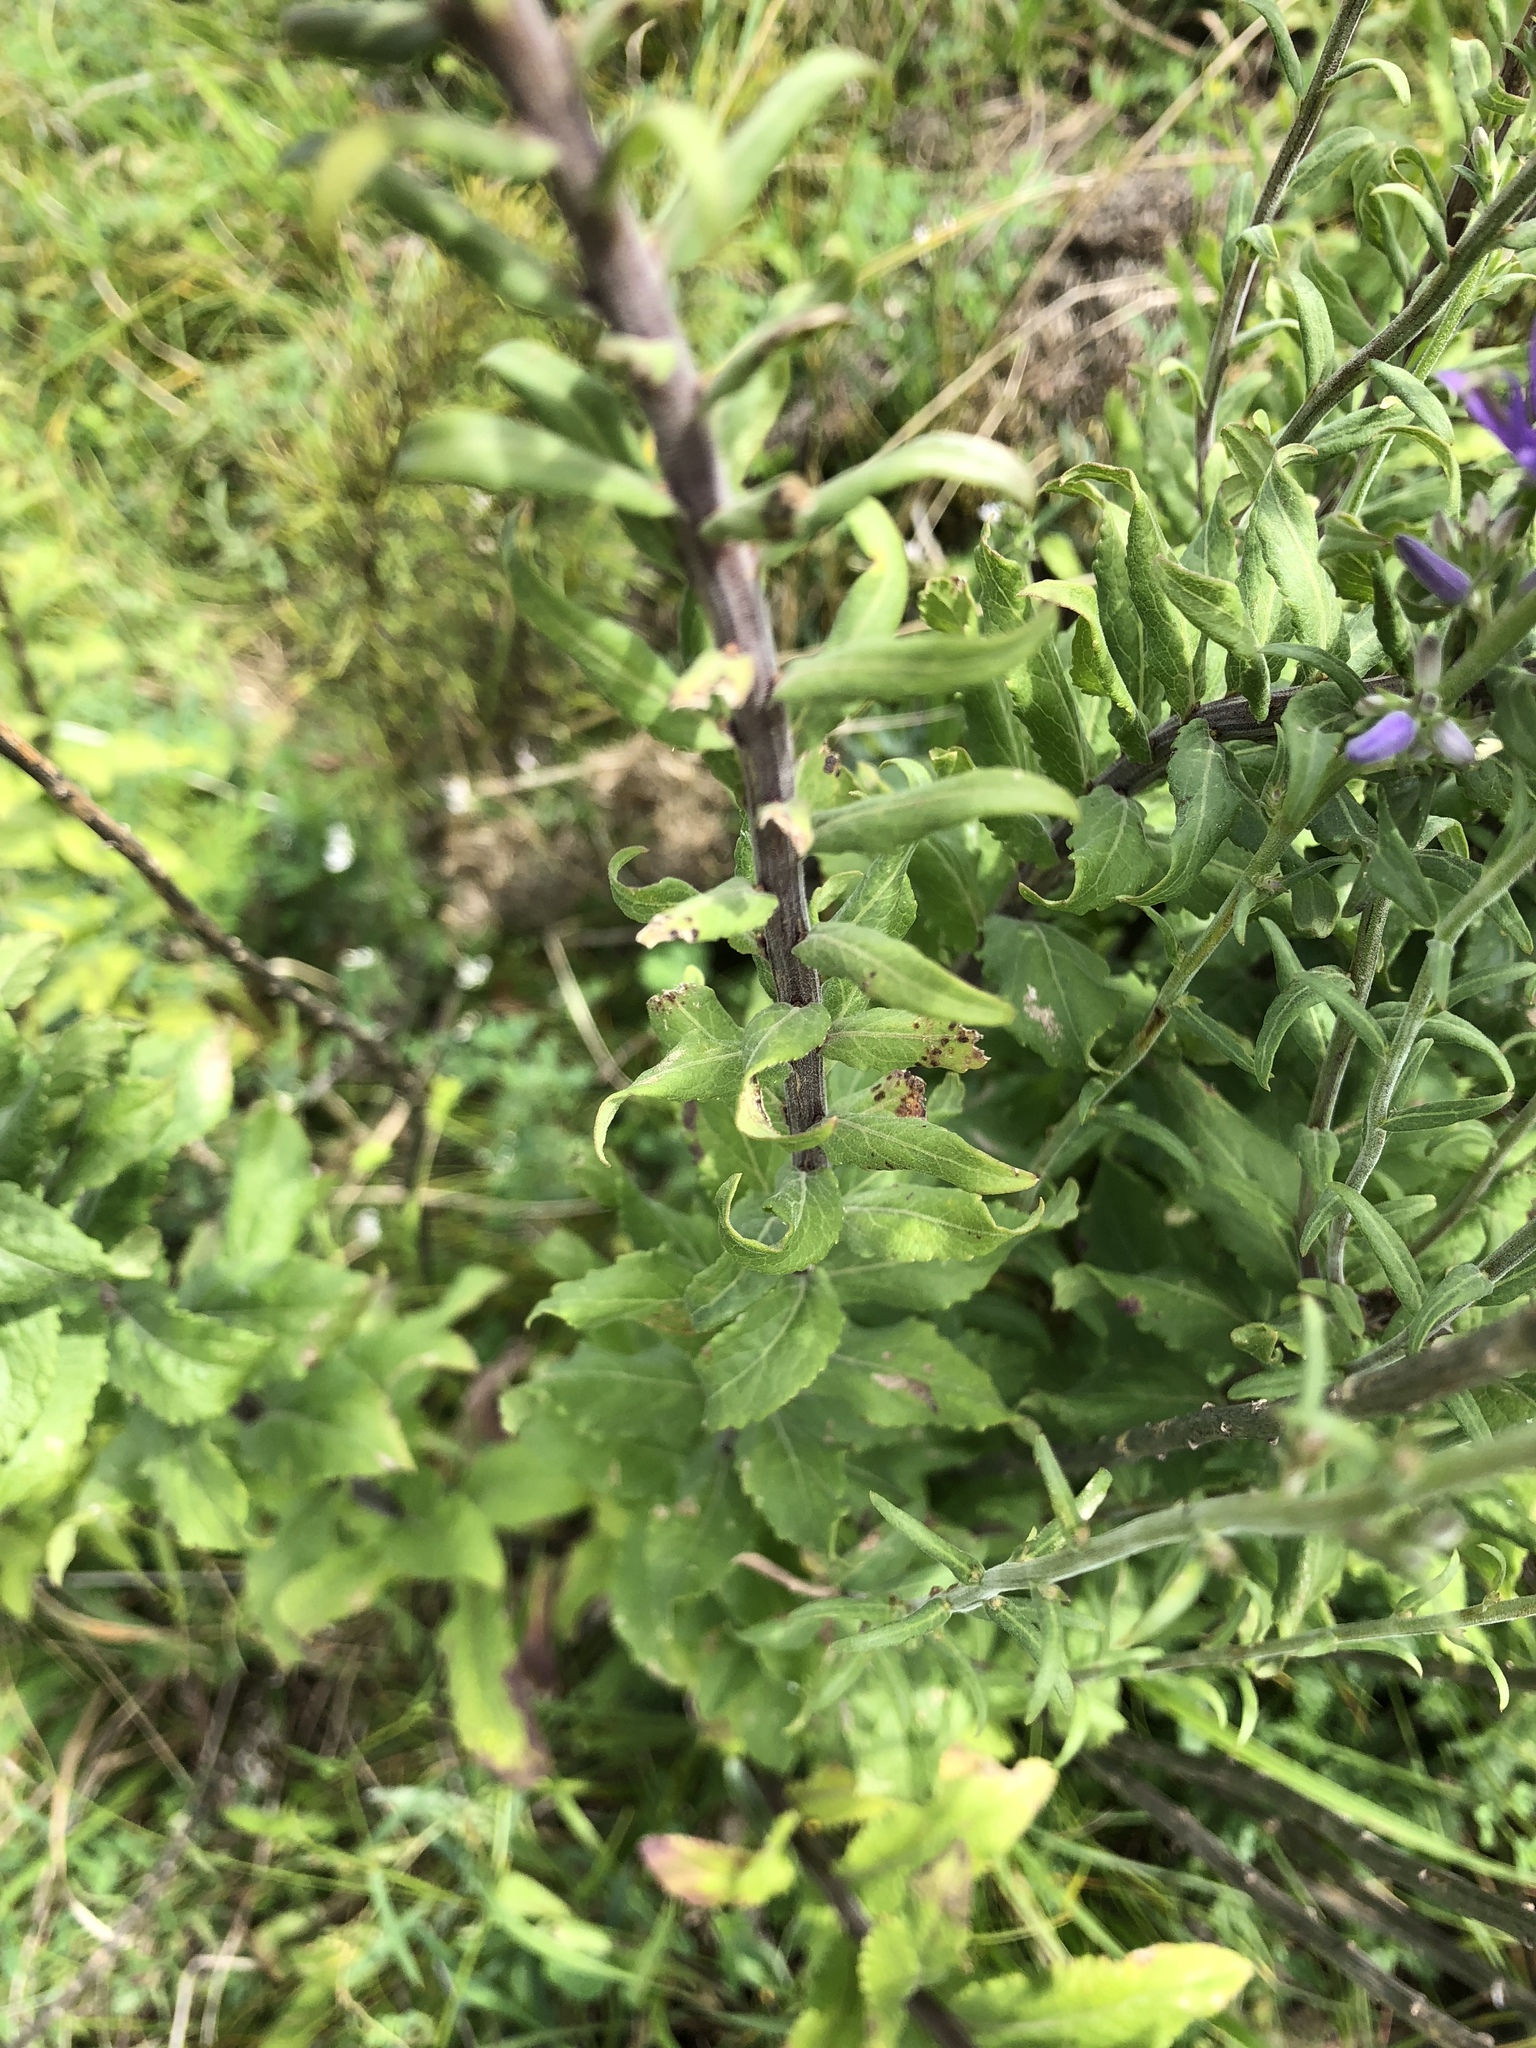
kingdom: Plantae
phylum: Tracheophyta
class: Magnoliopsida
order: Asterales
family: Campanulaceae
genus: Asyneuma
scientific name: Asyneuma canescens
